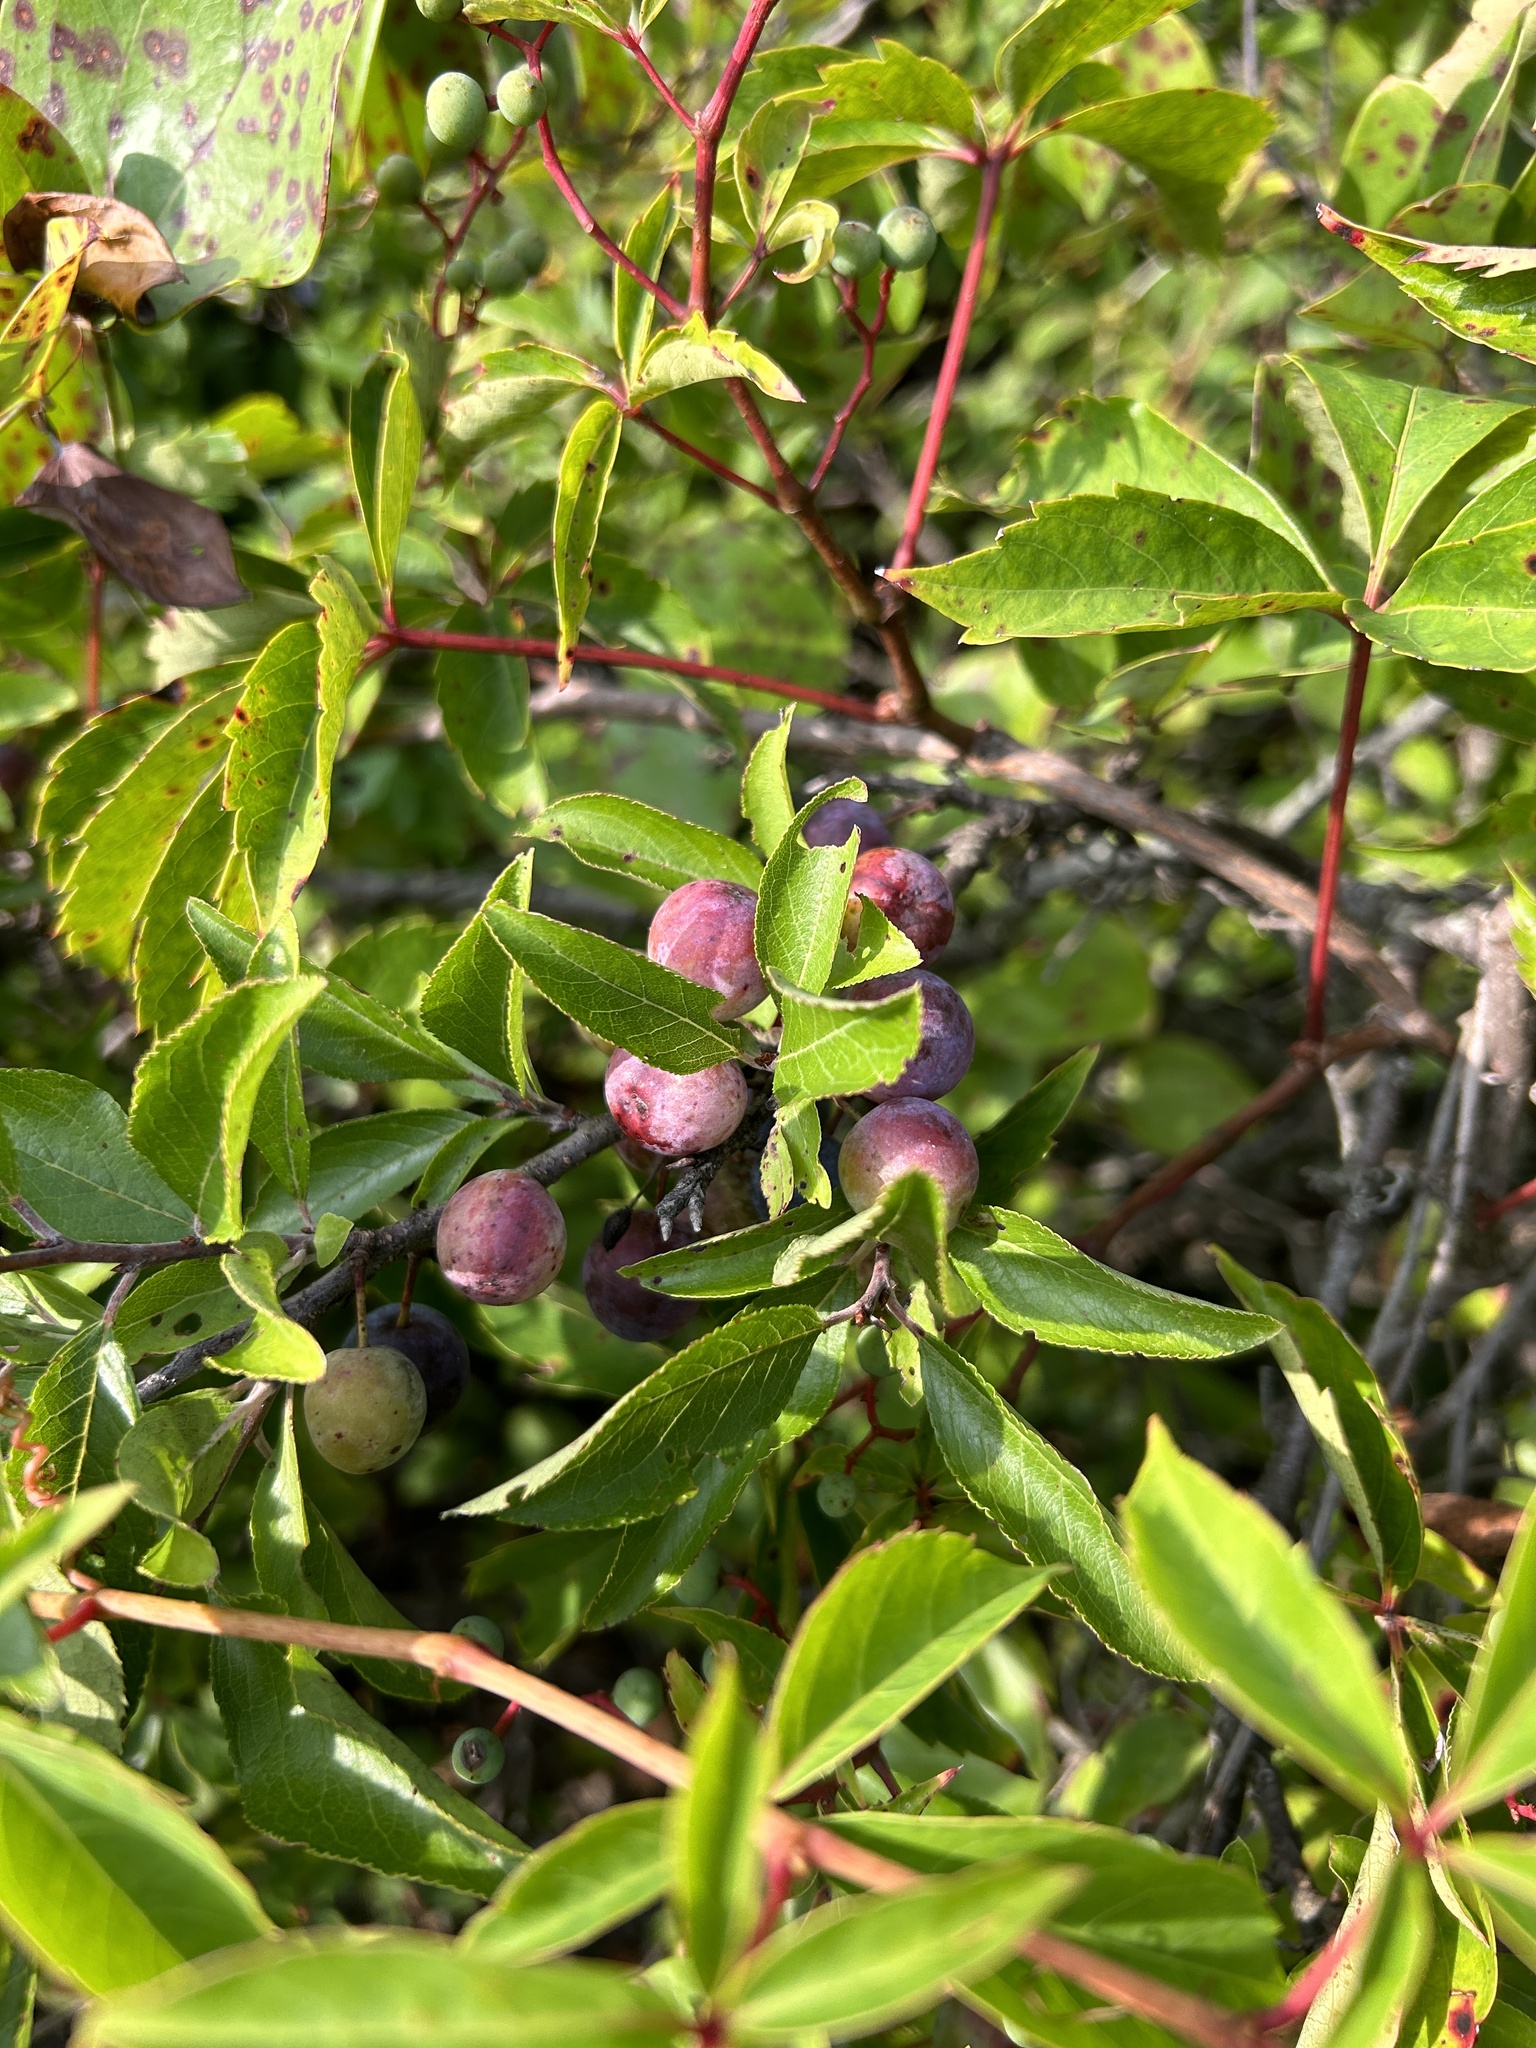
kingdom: Plantae
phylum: Tracheophyta
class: Magnoliopsida
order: Rosales
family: Rosaceae
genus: Prunus
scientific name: Prunus maritima
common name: Beach plum
